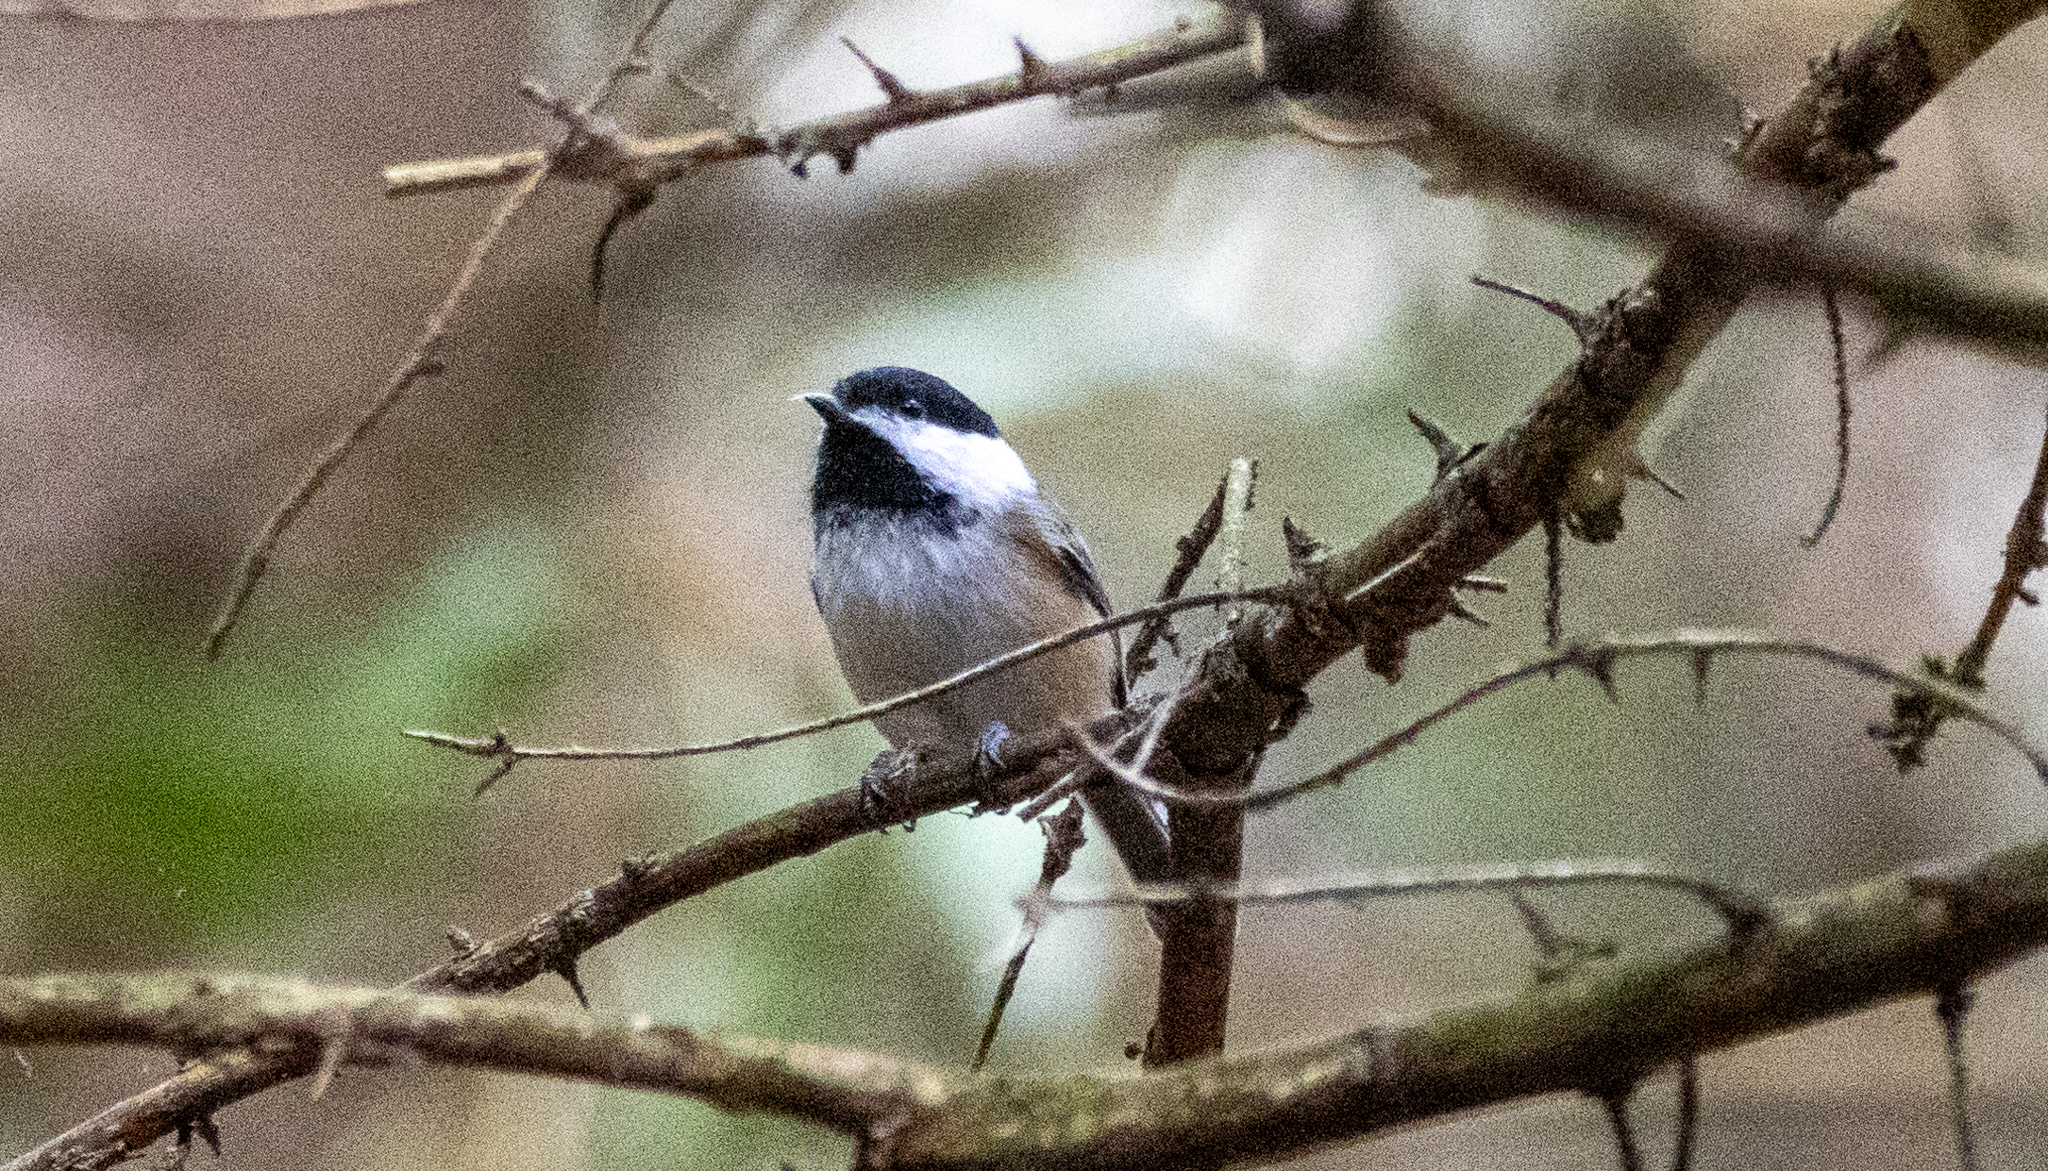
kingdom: Animalia
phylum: Chordata
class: Aves
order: Passeriformes
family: Paridae
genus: Poecile
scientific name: Poecile atricapillus
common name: Black-capped chickadee
